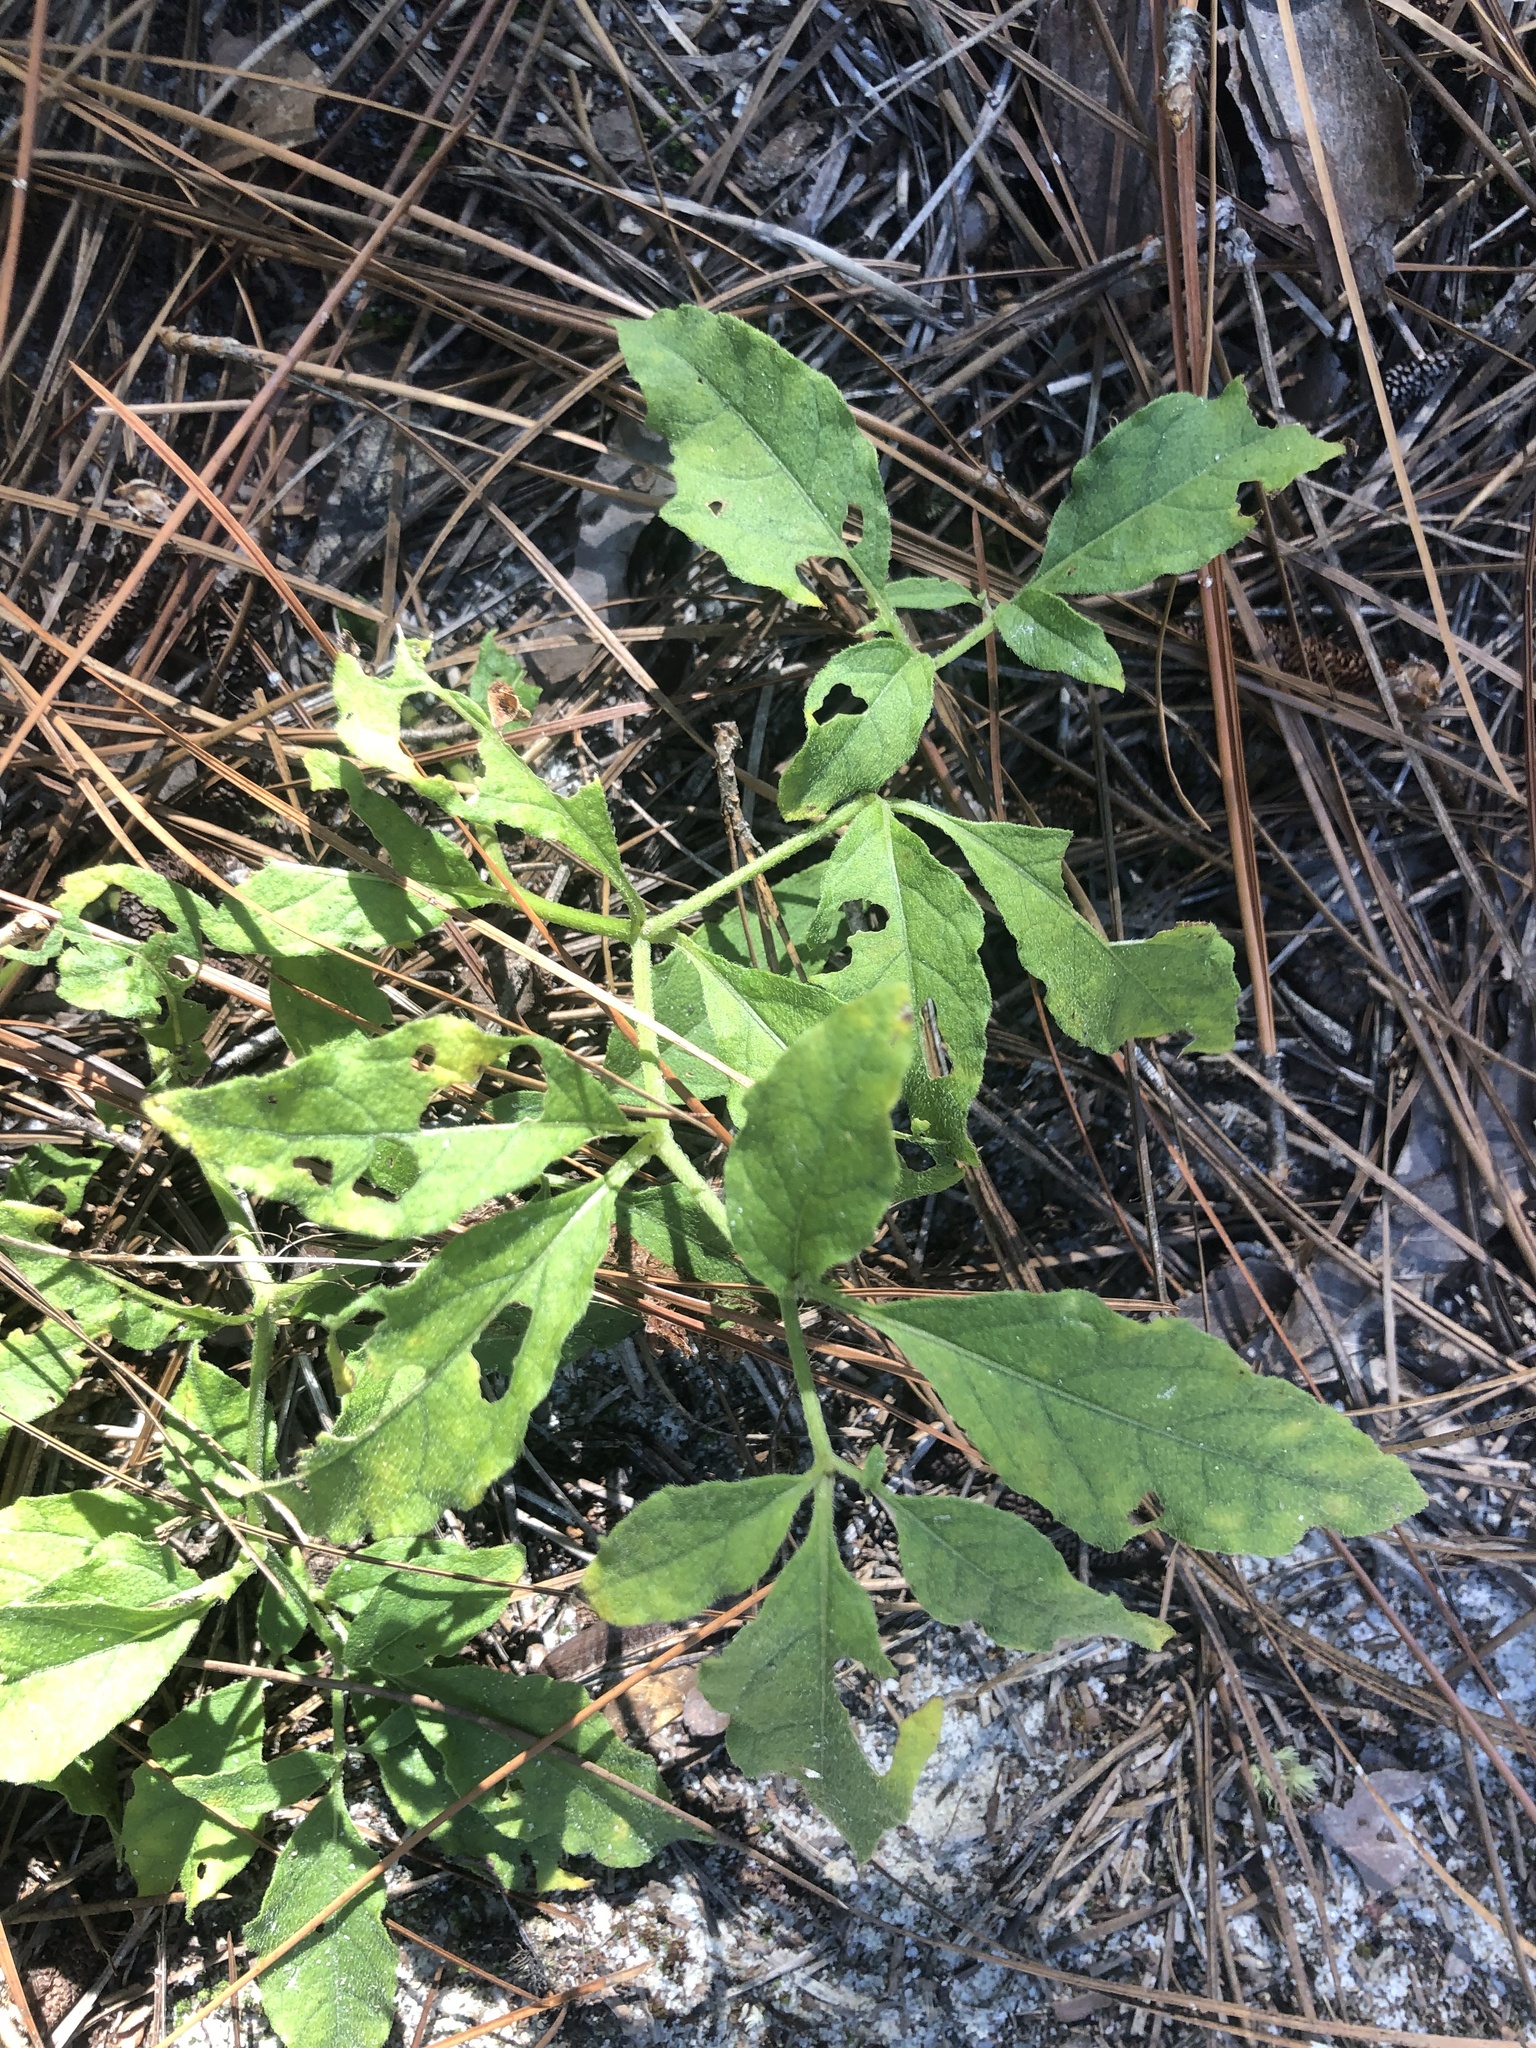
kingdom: Plantae
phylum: Tracheophyta
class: Magnoliopsida
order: Solanales
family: Solanaceae
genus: Physalis
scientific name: Physalis lanceolata
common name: Lance-leaved ground-cherry
